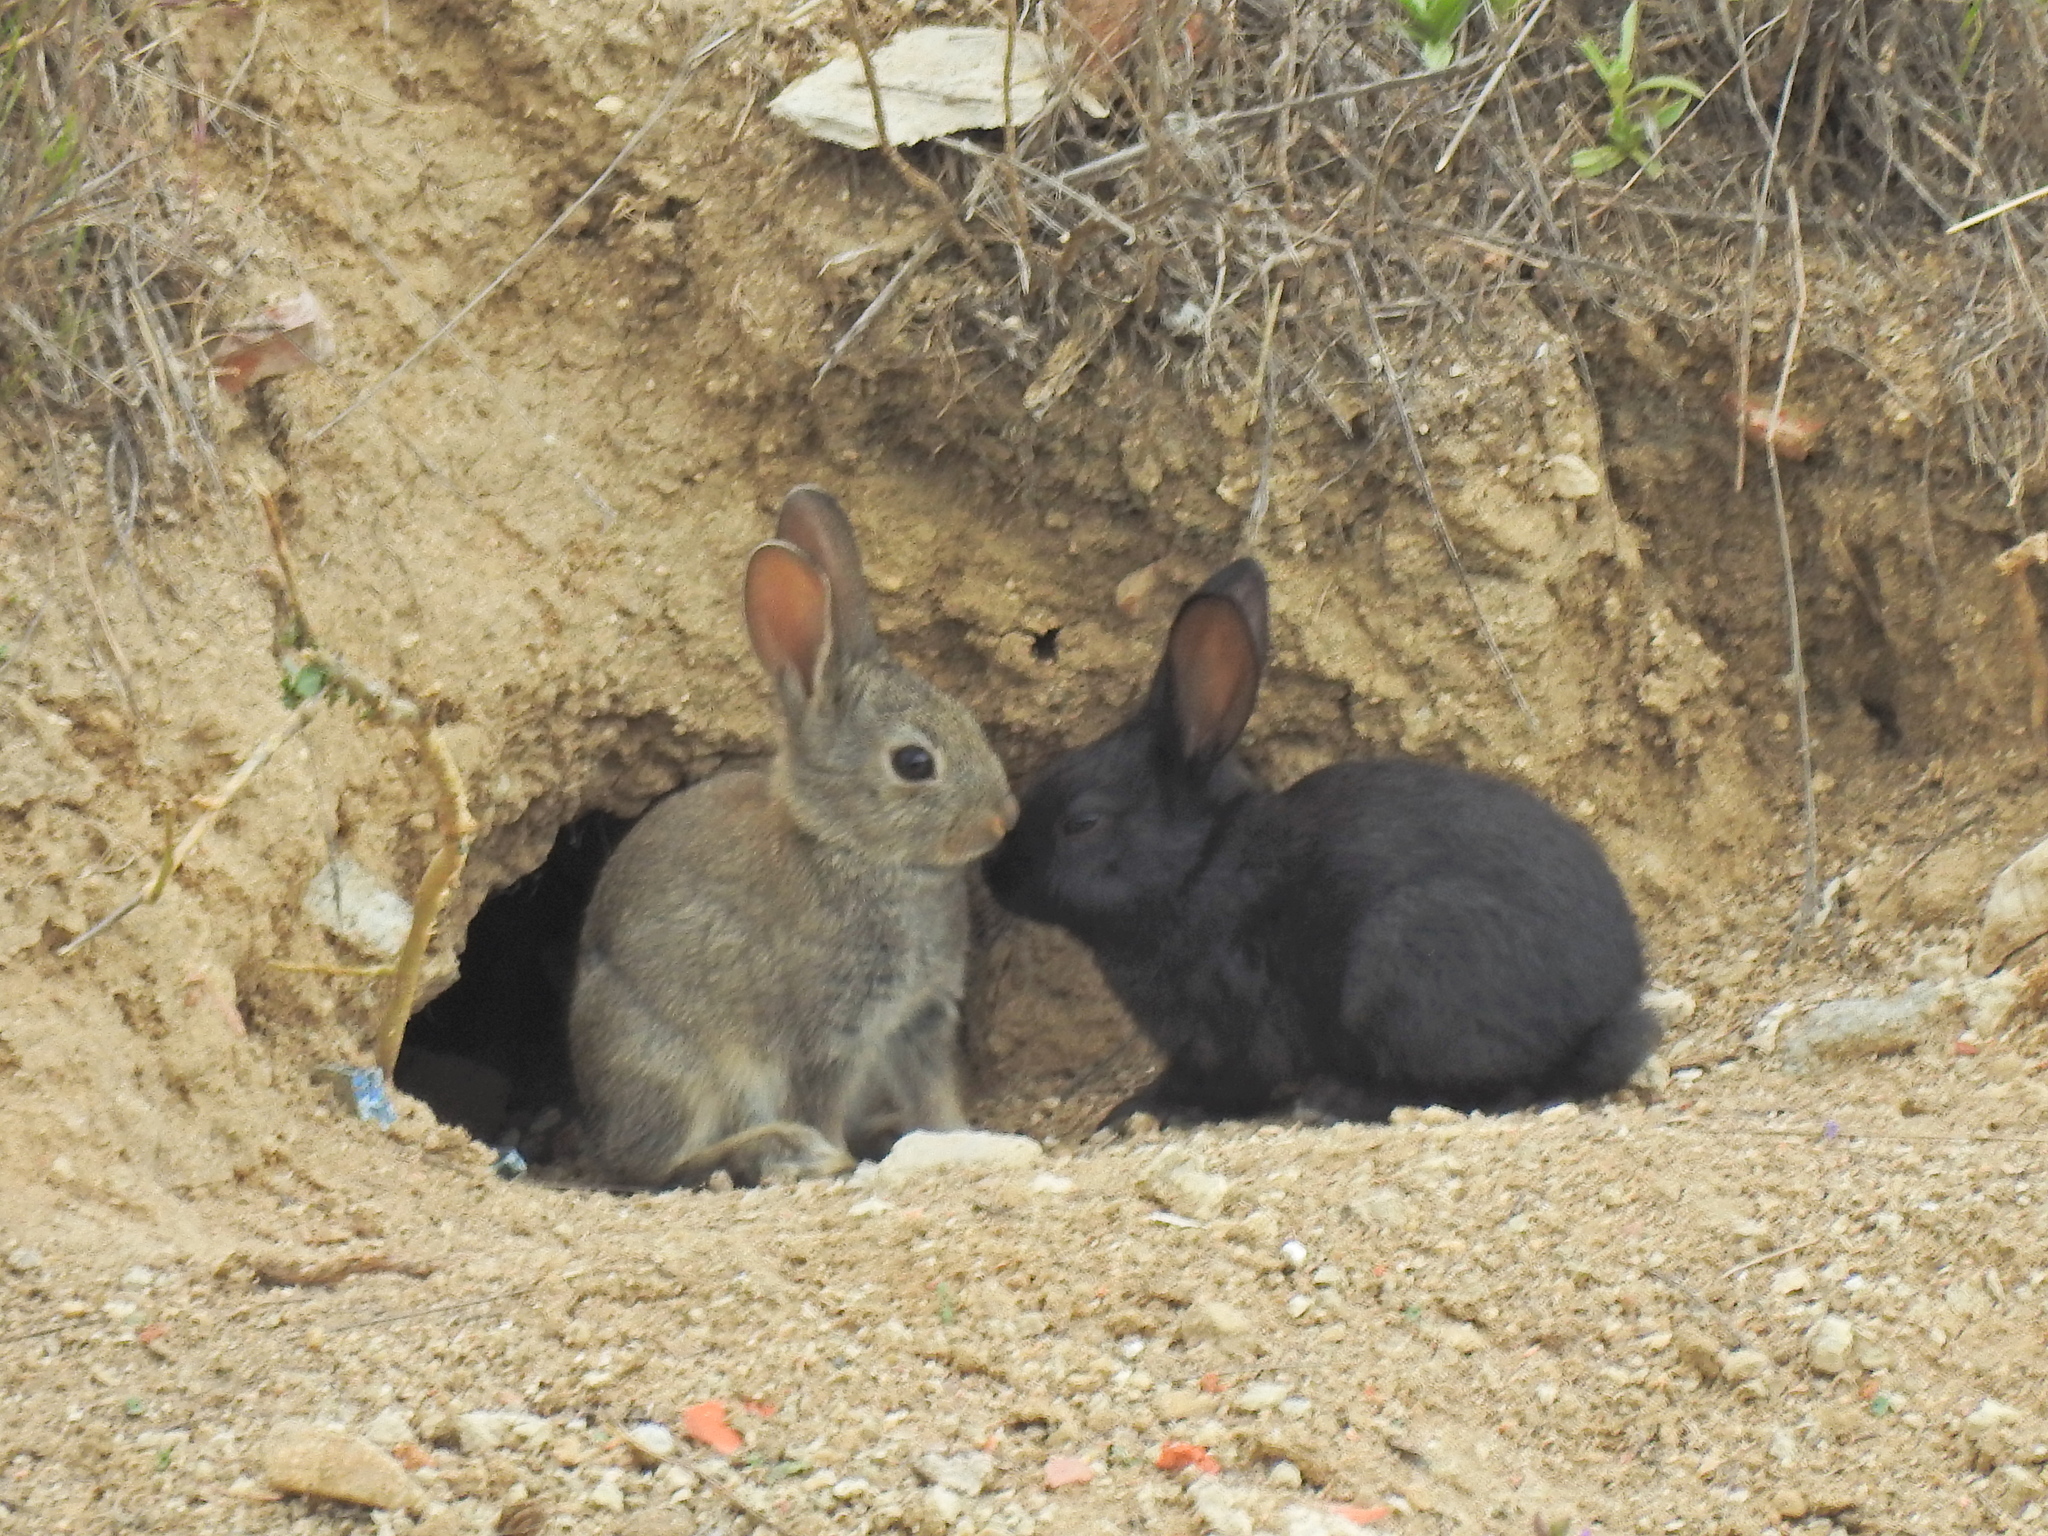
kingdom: Animalia
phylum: Chordata
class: Mammalia
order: Lagomorpha
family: Leporidae
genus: Oryctolagus
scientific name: Oryctolagus cuniculus
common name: European rabbit
